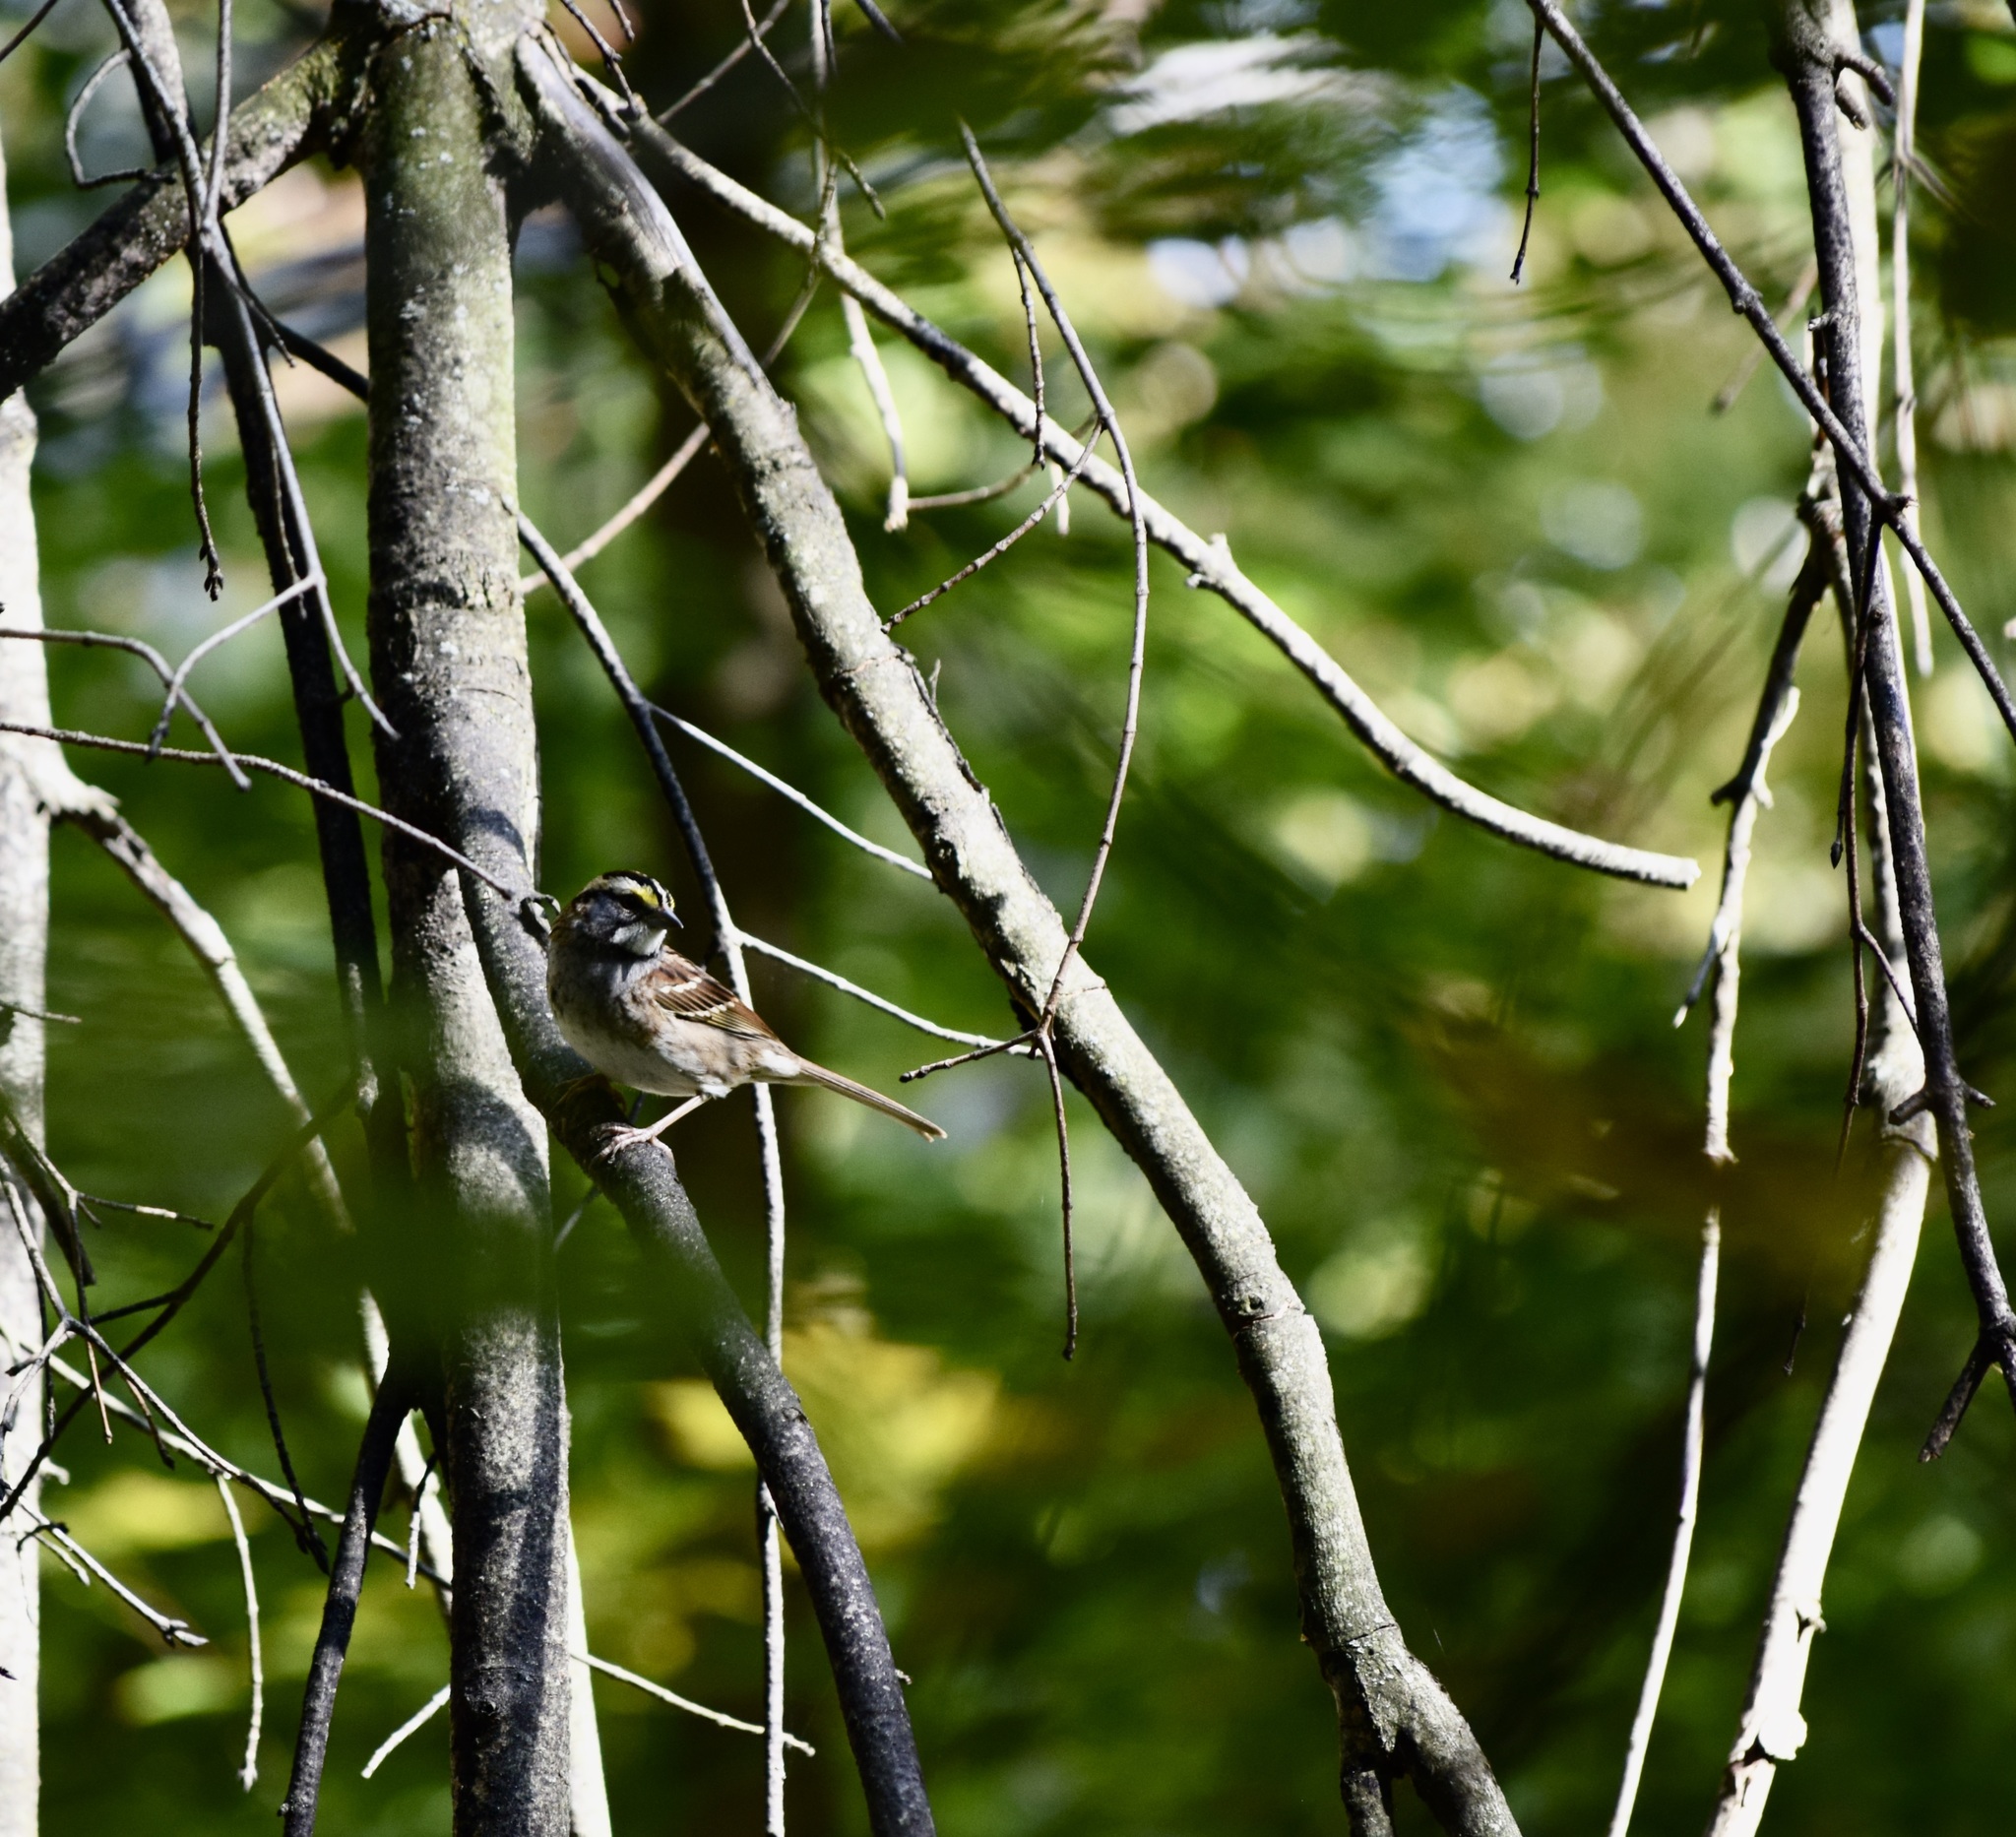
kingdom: Animalia
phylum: Chordata
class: Aves
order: Passeriformes
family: Passerellidae
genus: Zonotrichia
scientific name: Zonotrichia albicollis
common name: White-throated sparrow
